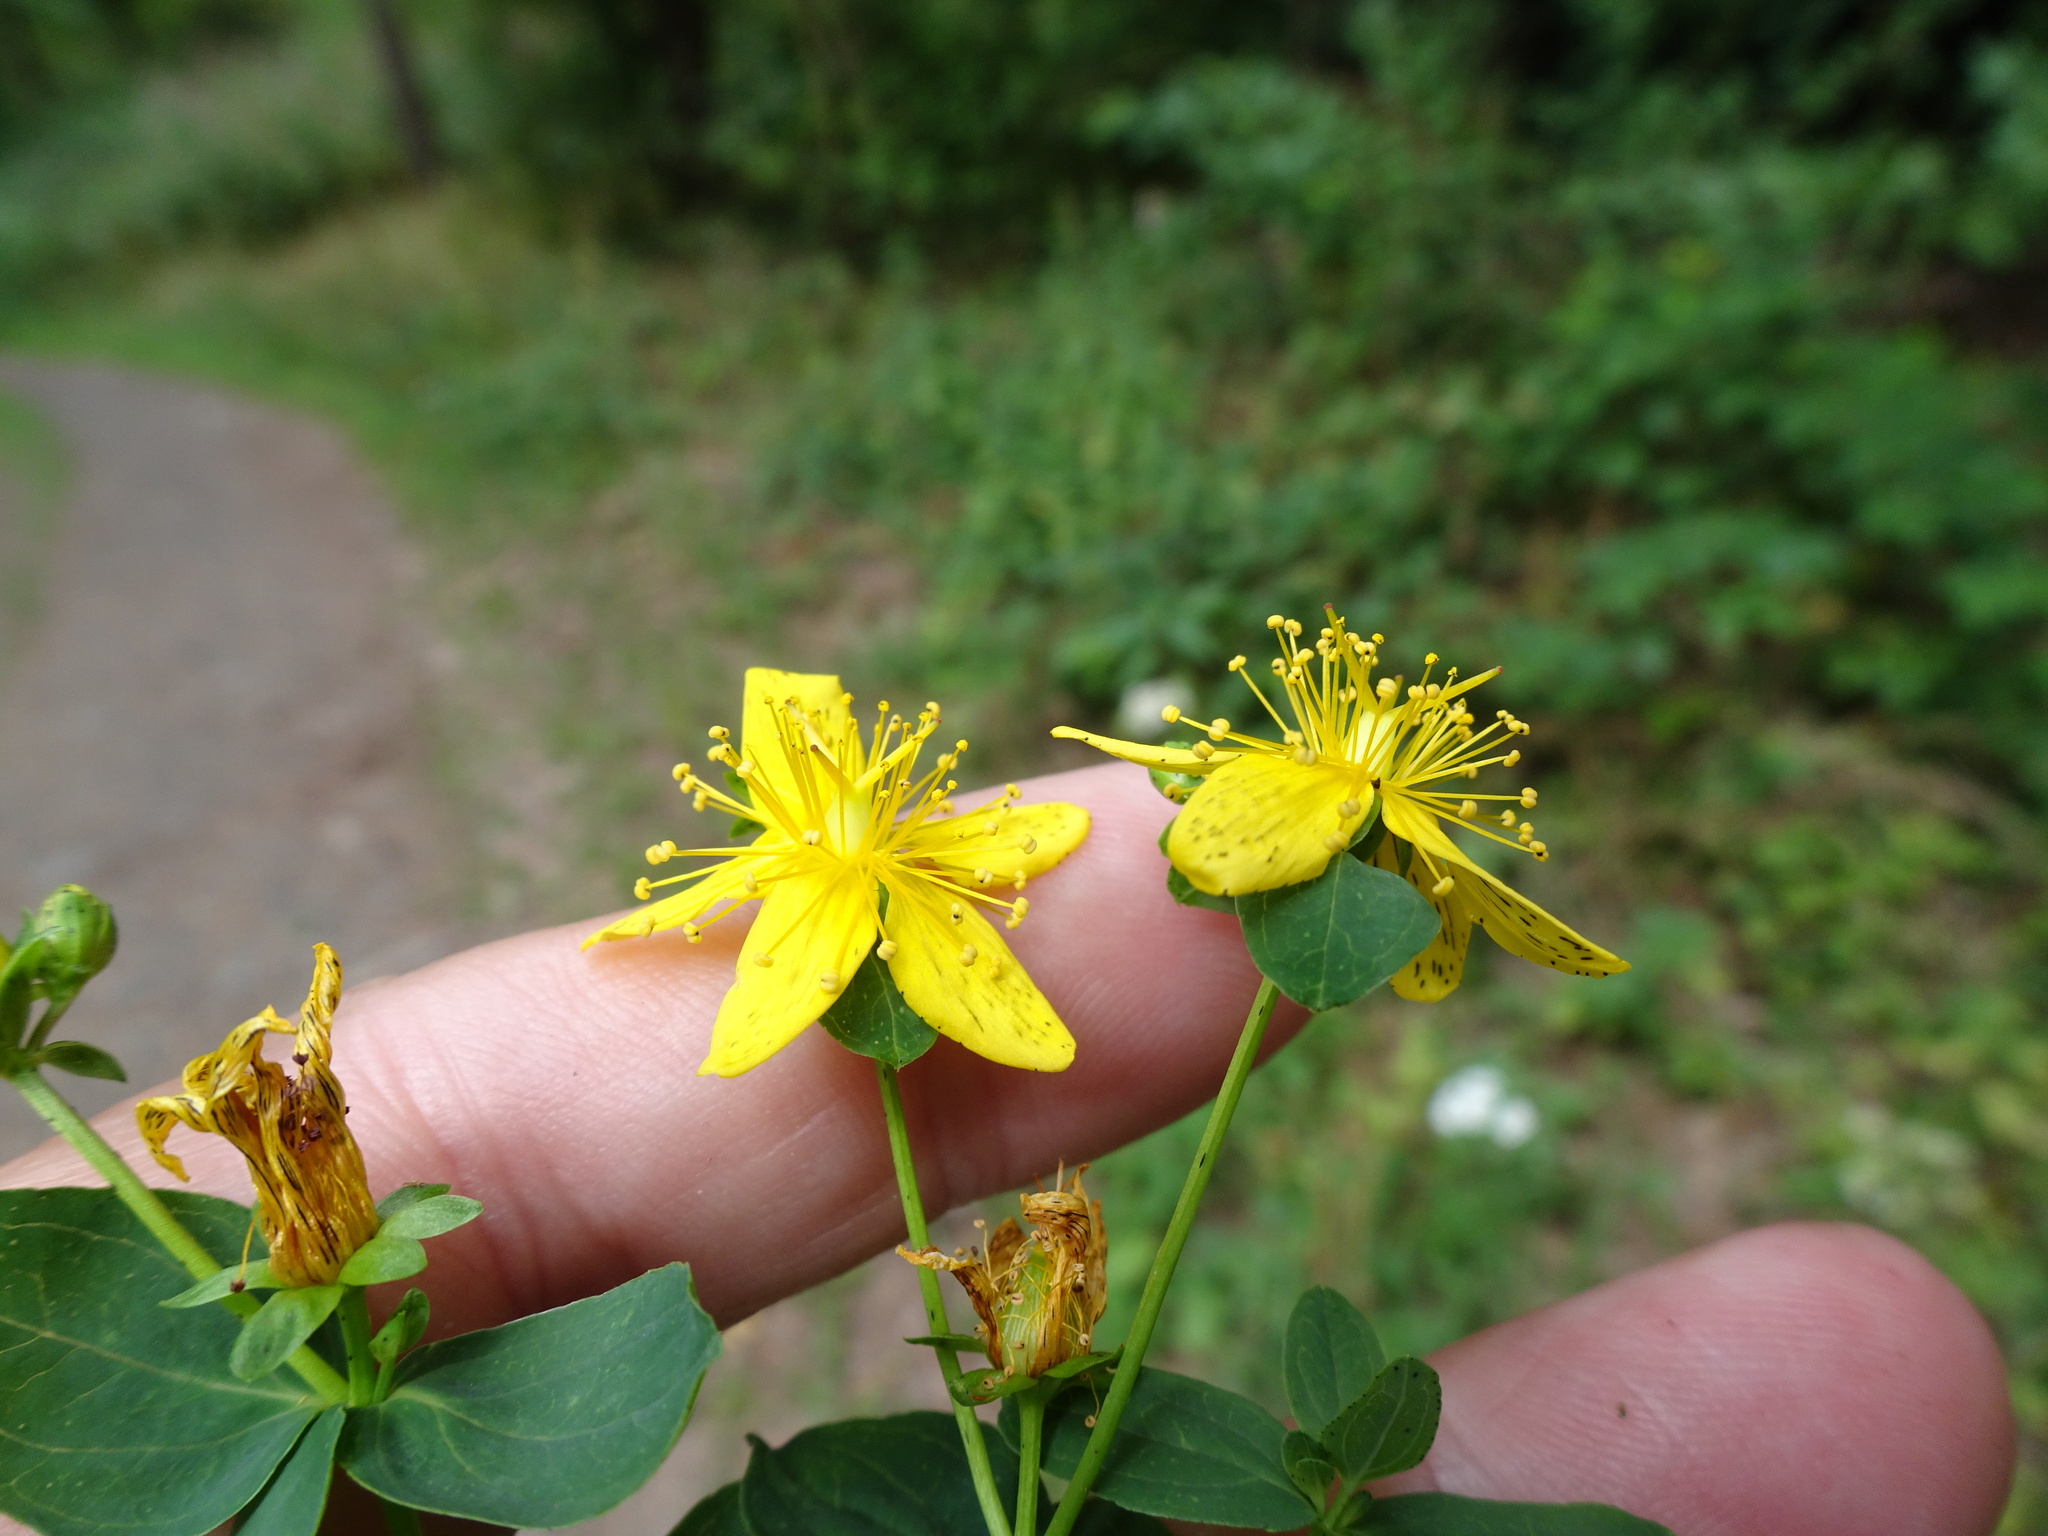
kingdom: Plantae
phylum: Tracheophyta
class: Magnoliopsida
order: Malpighiales
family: Hypericaceae
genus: Hypericum
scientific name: Hypericum dubium
